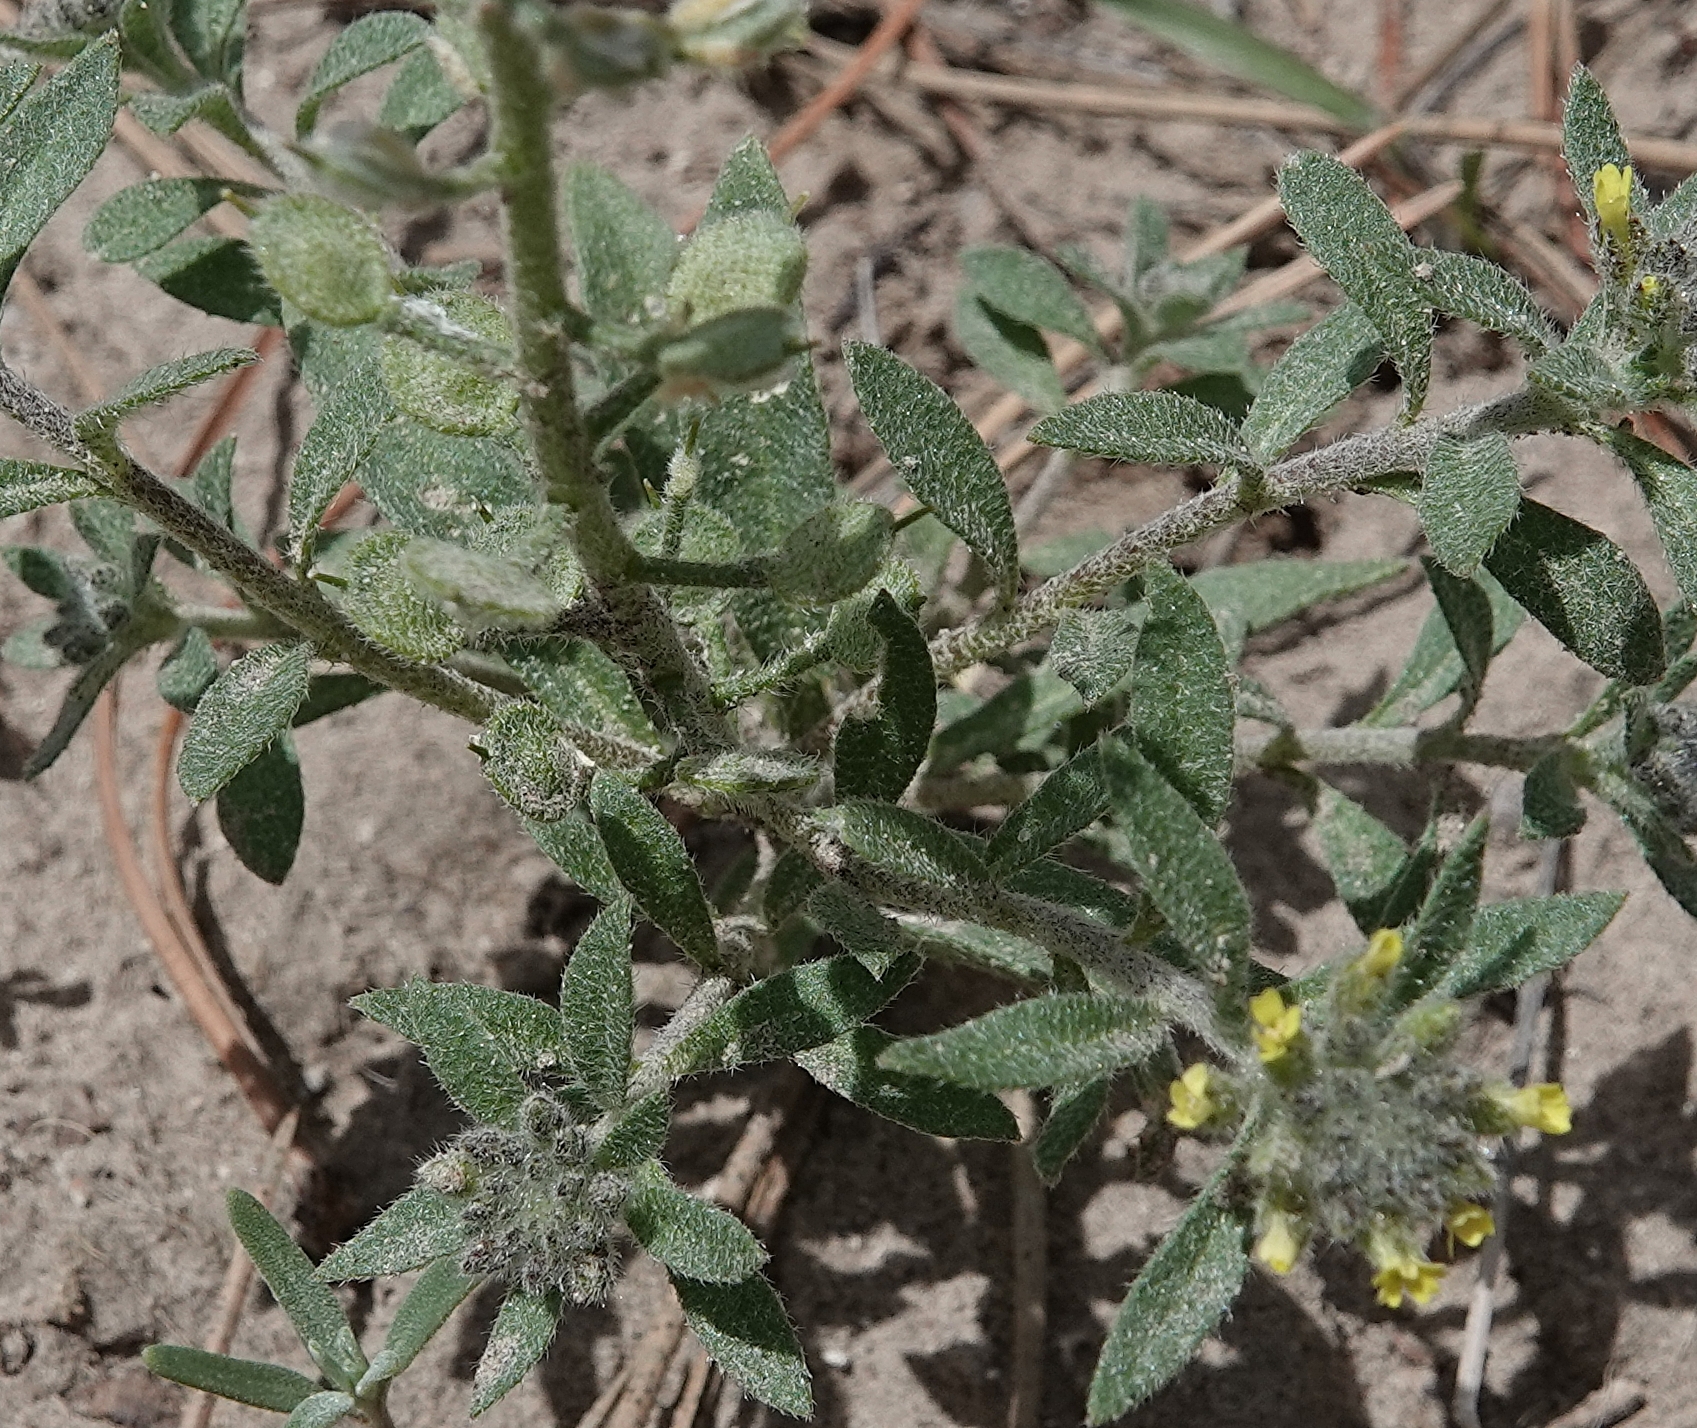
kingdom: Plantae
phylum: Tracheophyta
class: Magnoliopsida
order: Brassicales
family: Brassicaceae
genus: Alyssum
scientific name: Alyssum turkestanicum
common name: Desert alyssum
